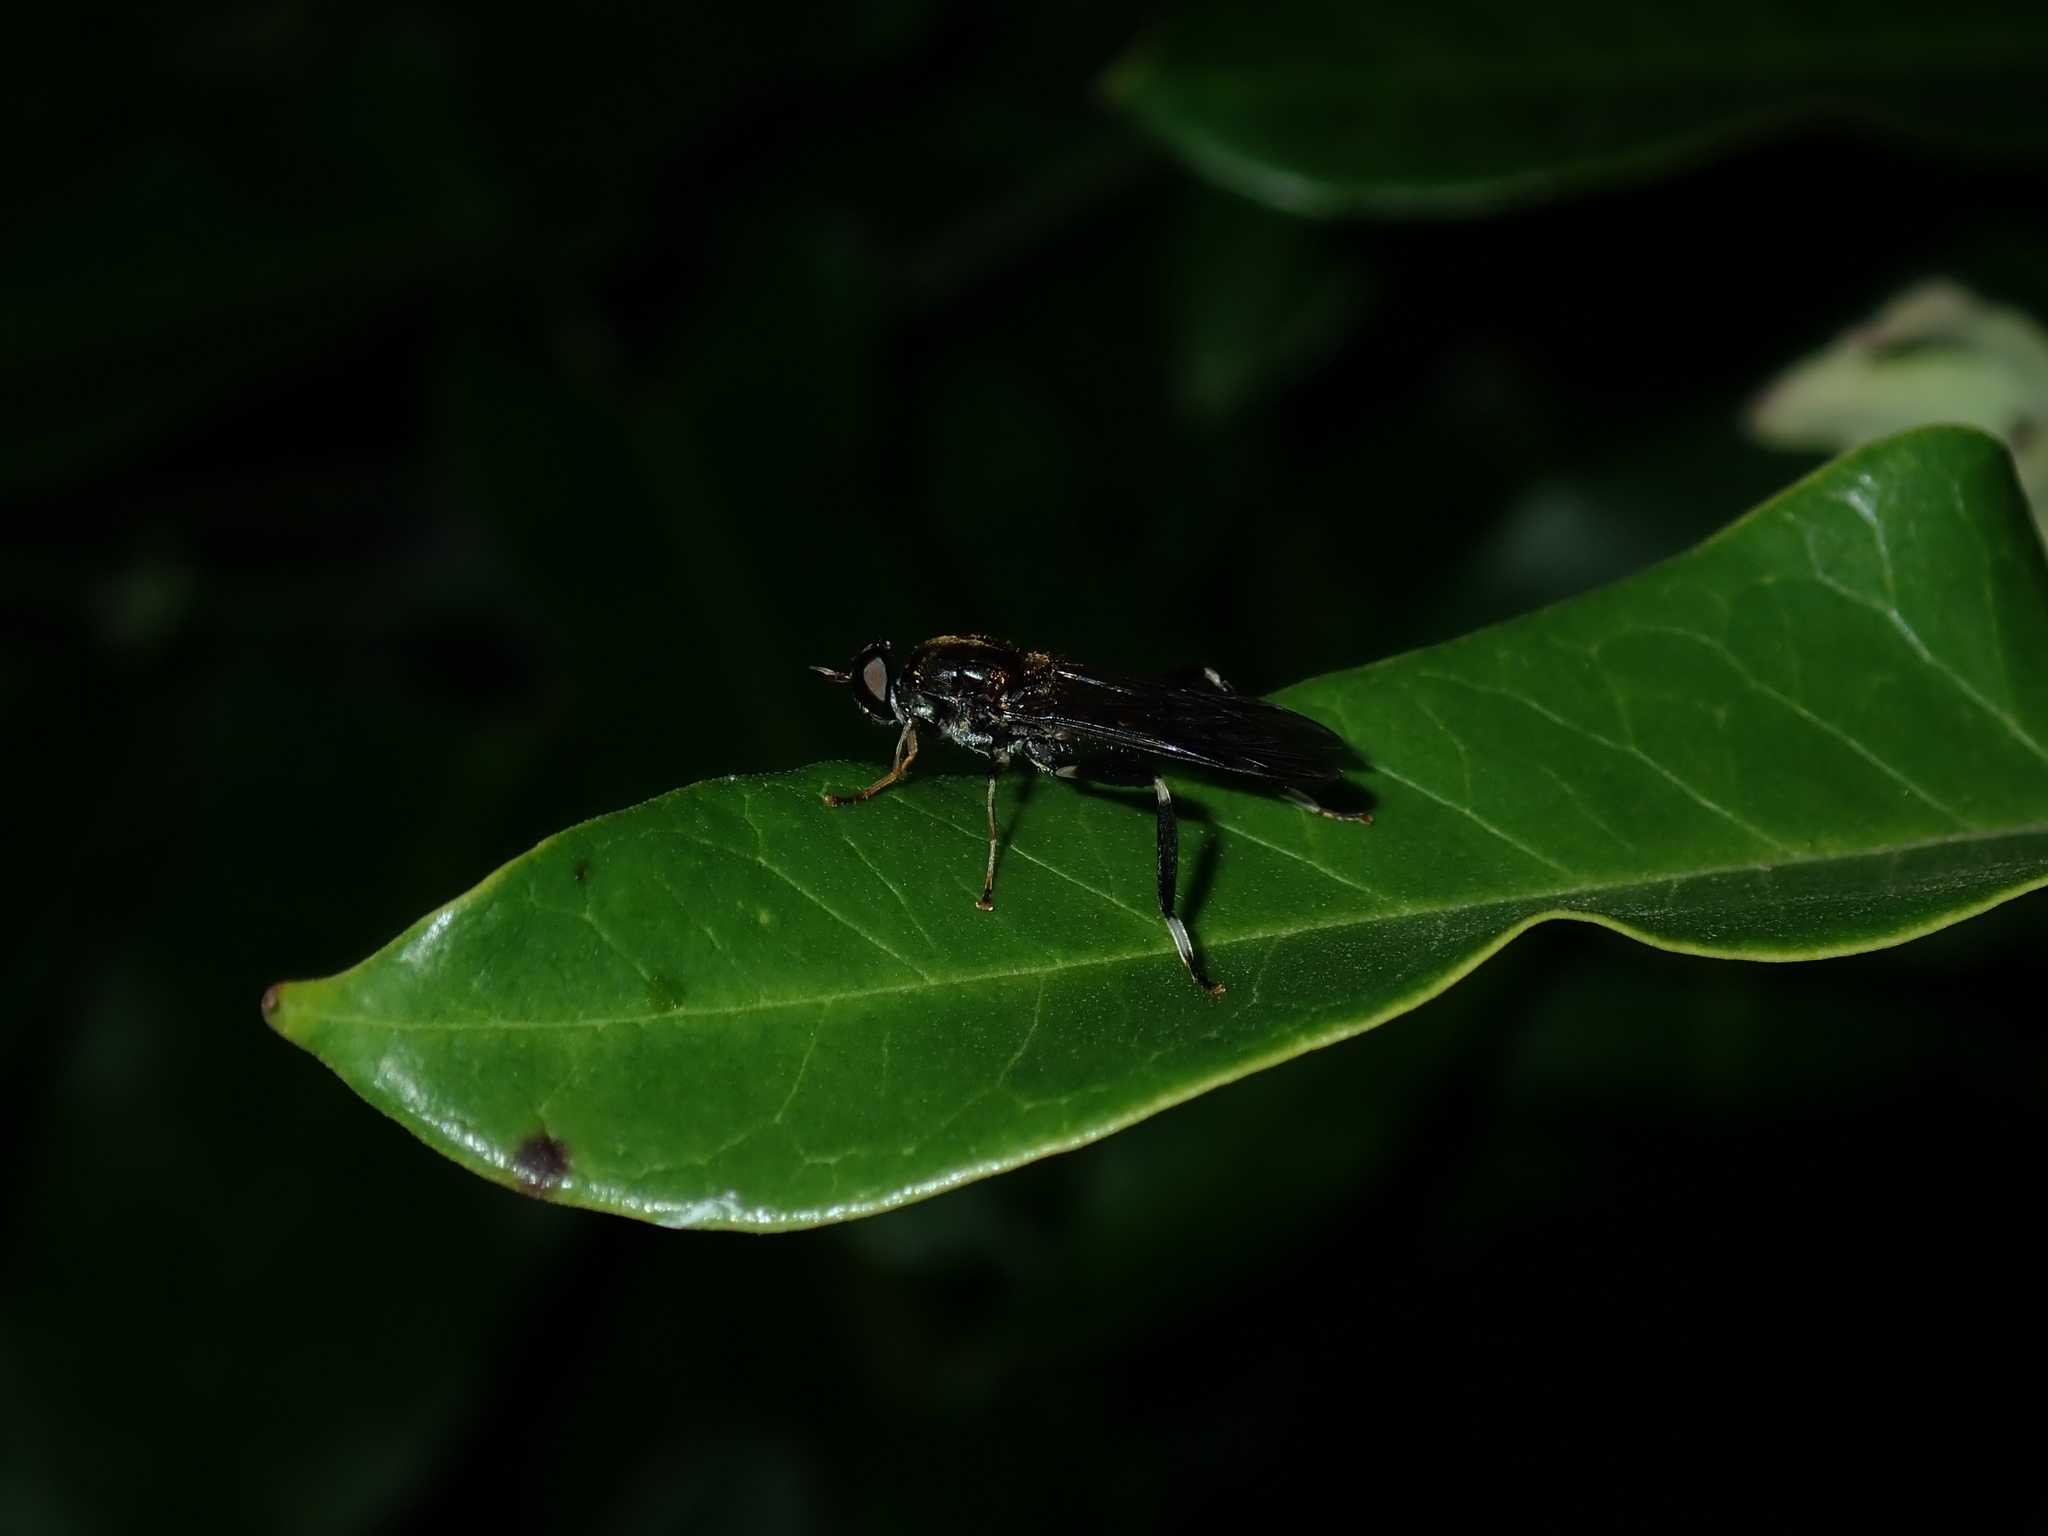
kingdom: Animalia
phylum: Arthropoda
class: Insecta
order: Diptera
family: Stratiomyidae
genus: Exaireta
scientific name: Exaireta spinigera
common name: Blue soldier fly
